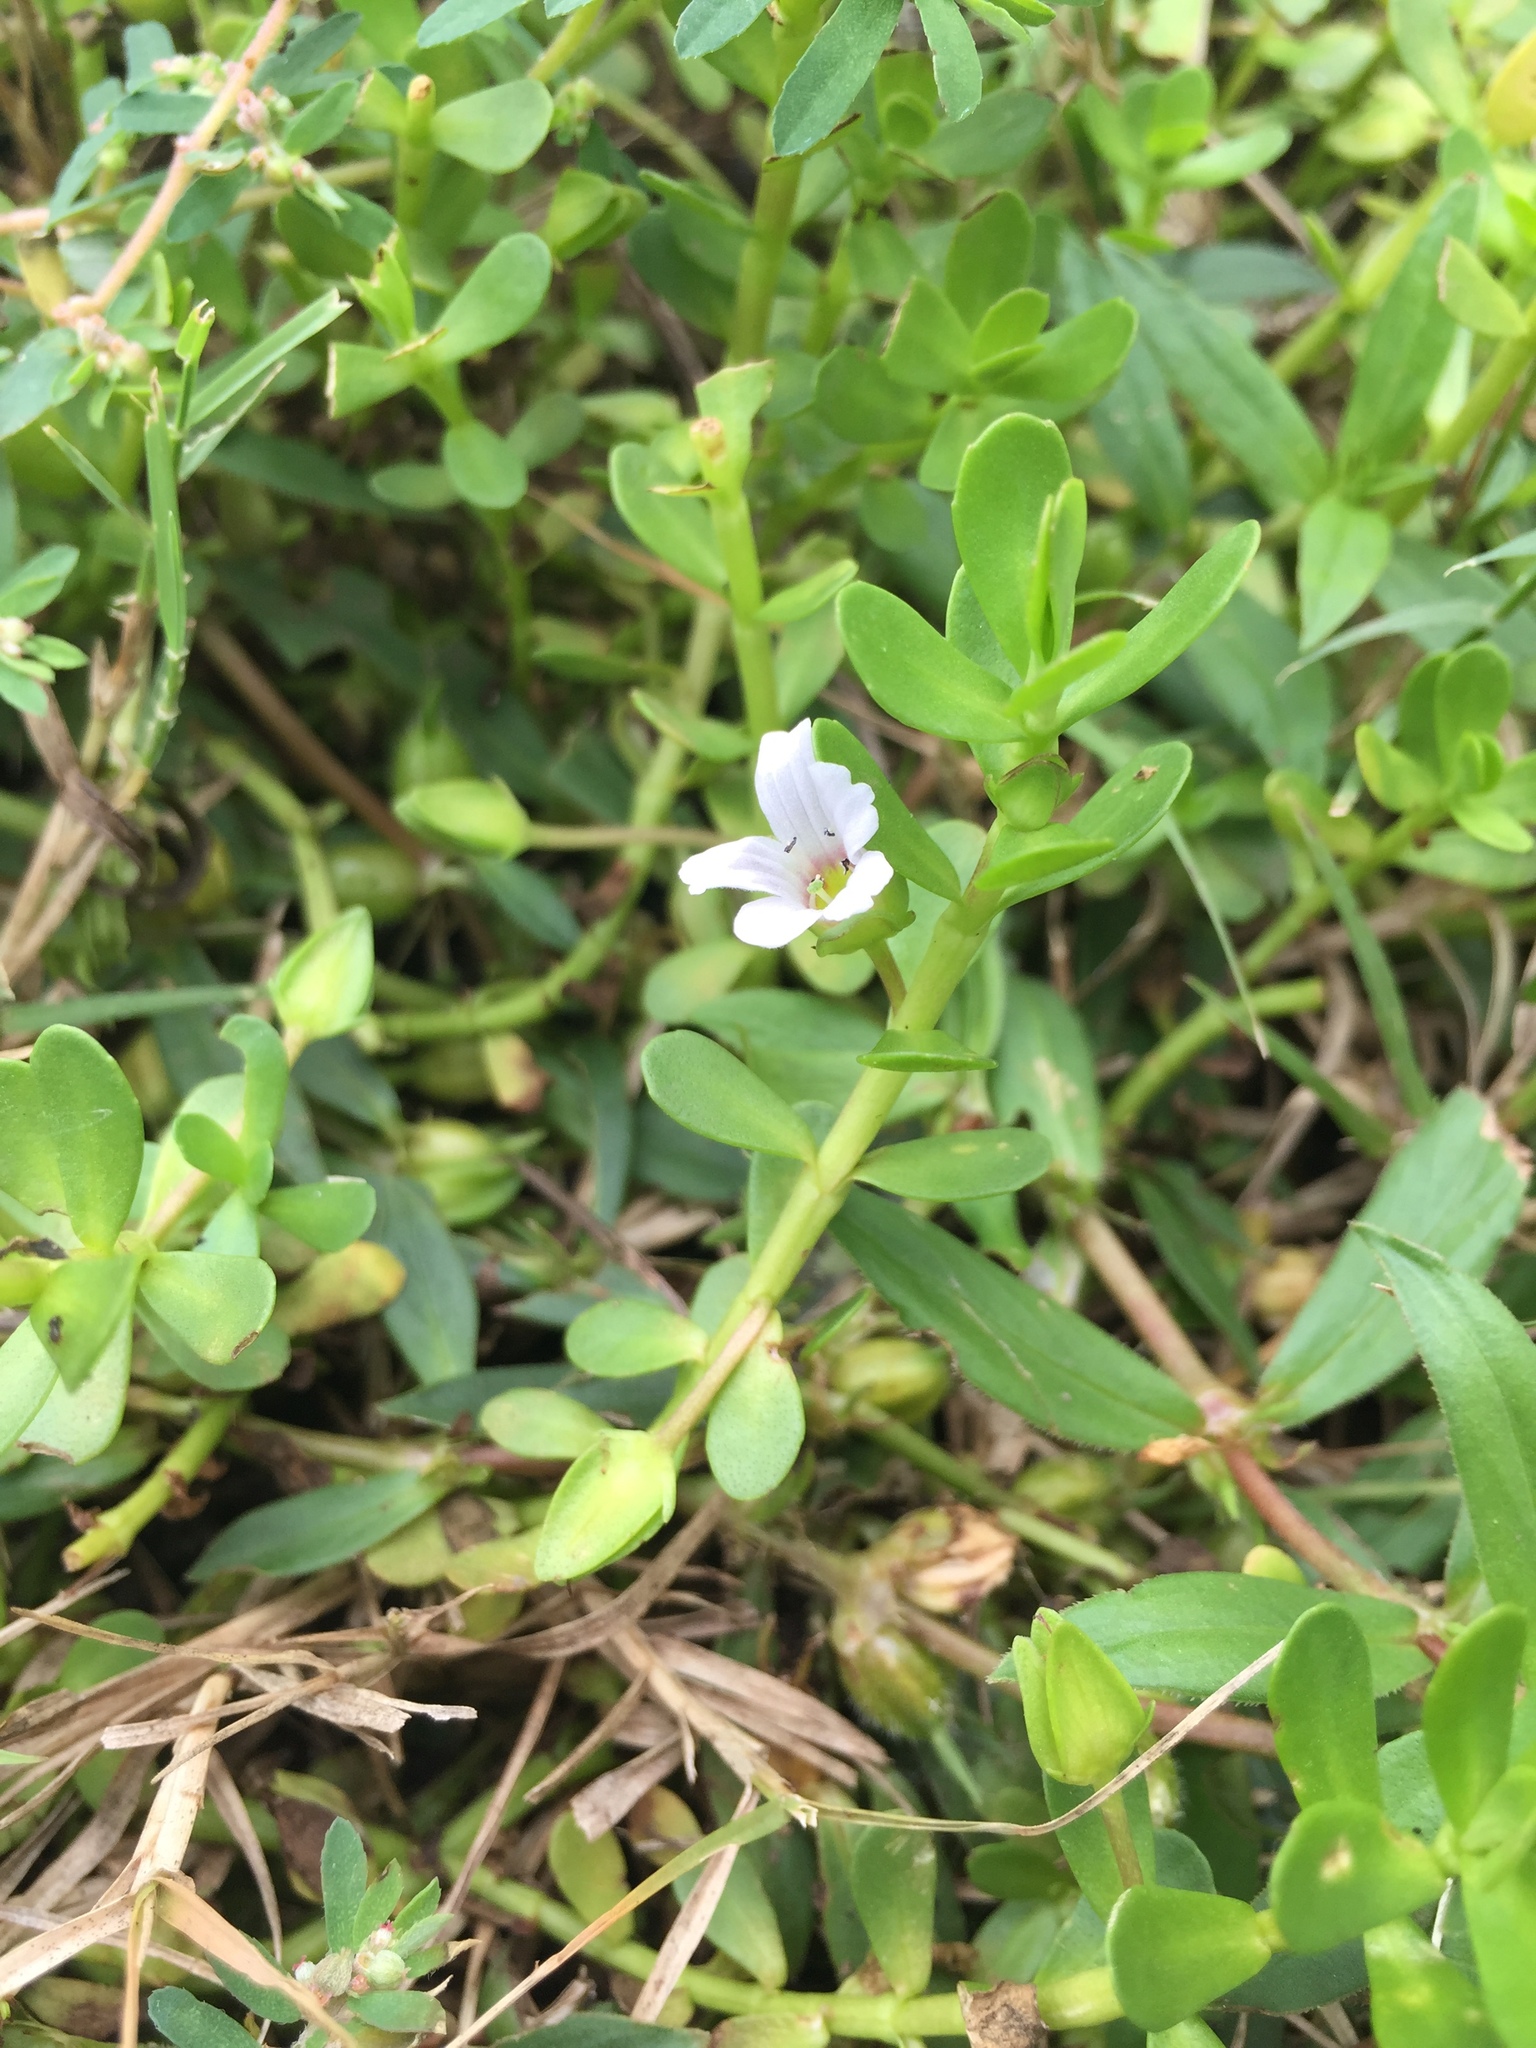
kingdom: Plantae
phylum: Tracheophyta
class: Magnoliopsida
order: Lamiales
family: Plantaginaceae
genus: Bacopa
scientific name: Bacopa monnieri
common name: Indian-pennywort
